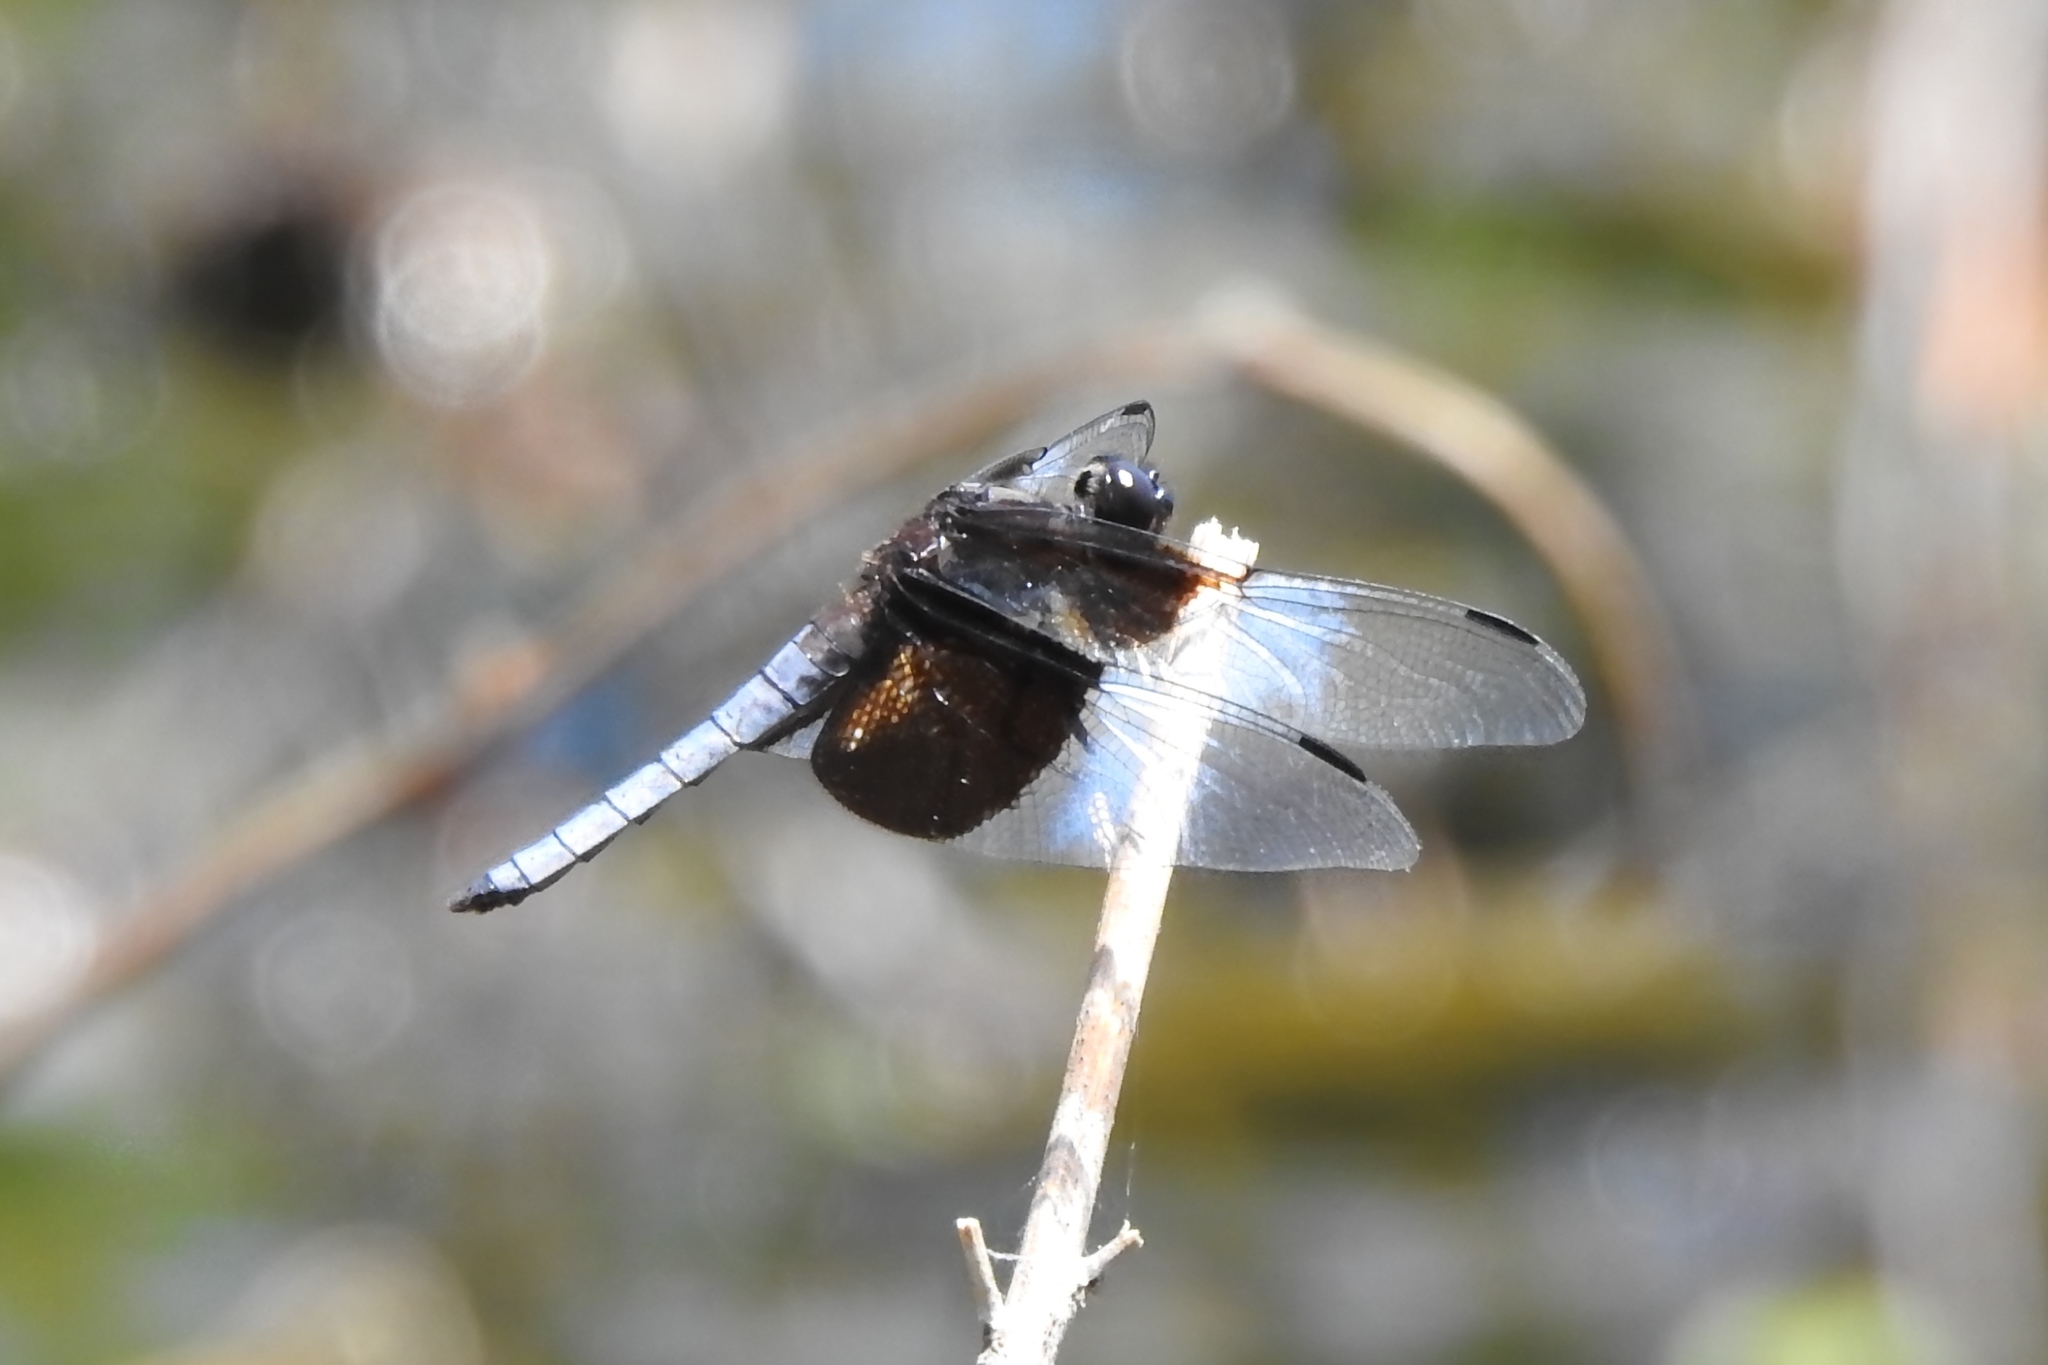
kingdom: Animalia
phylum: Arthropoda
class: Insecta
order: Odonata
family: Libellulidae
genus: Libellula
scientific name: Libellula luctuosa
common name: Widow skimmer
